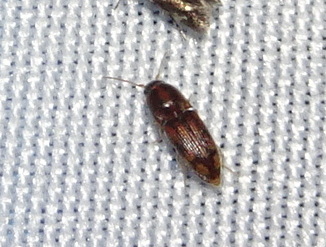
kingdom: Animalia
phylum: Arthropoda
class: Insecta
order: Coleoptera
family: Elateridae
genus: Monocrepidius
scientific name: Monocrepidius bellus
